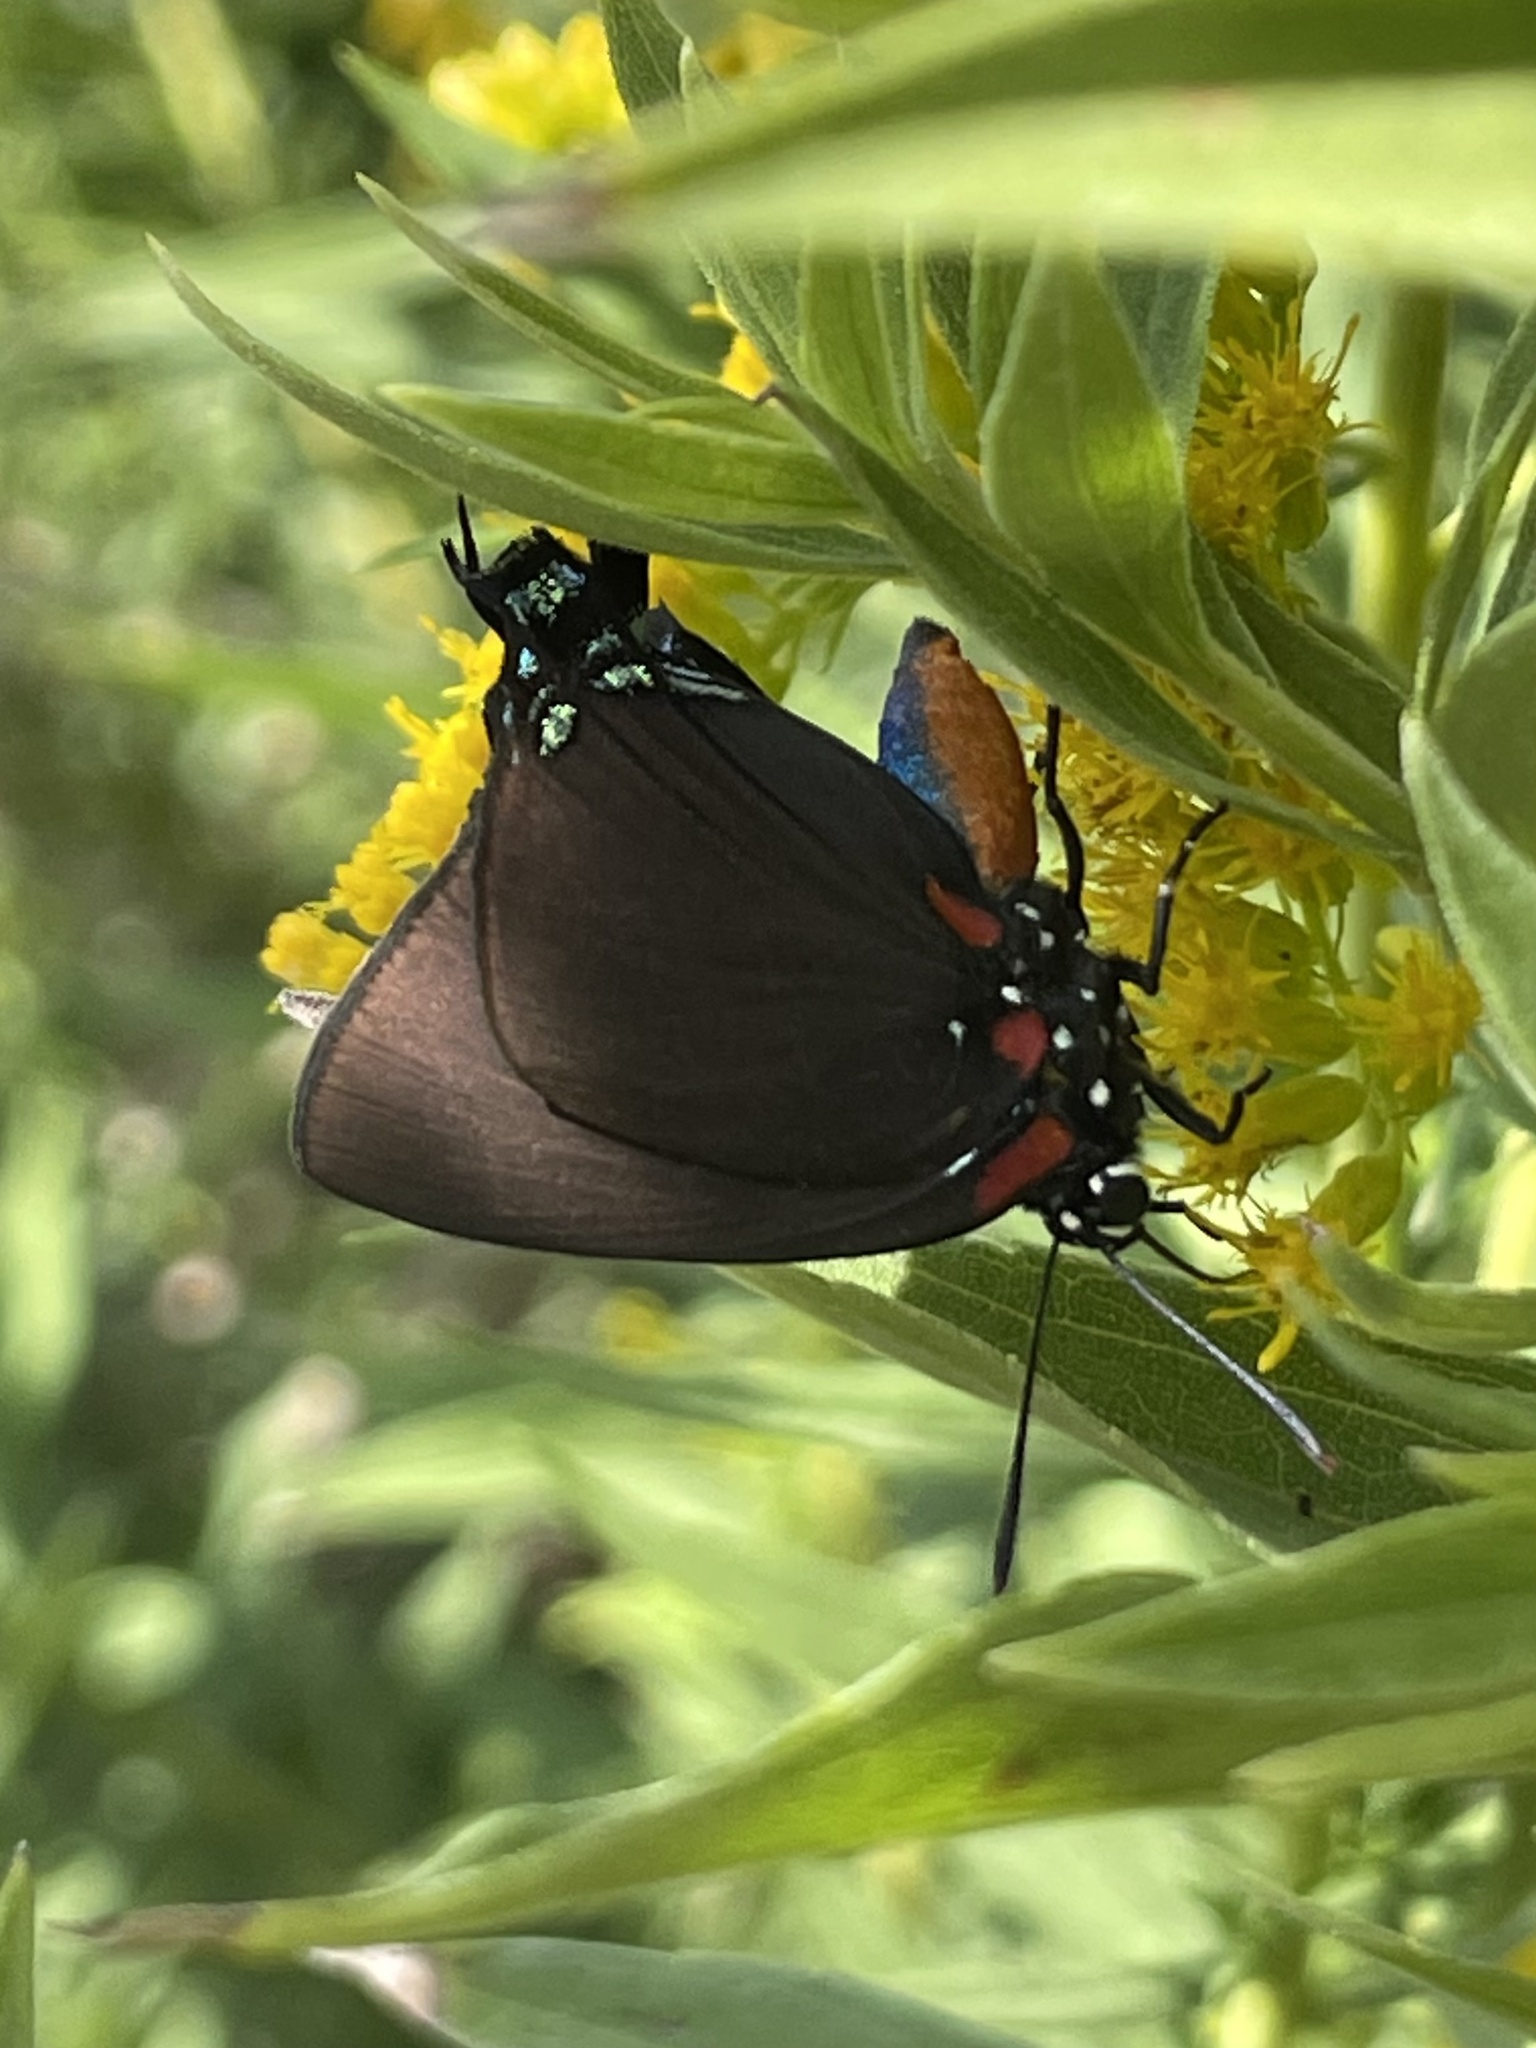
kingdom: Animalia
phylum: Arthropoda
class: Insecta
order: Lepidoptera
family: Lycaenidae
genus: Atlides
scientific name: Atlides halesus
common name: Great purple hairstreak
